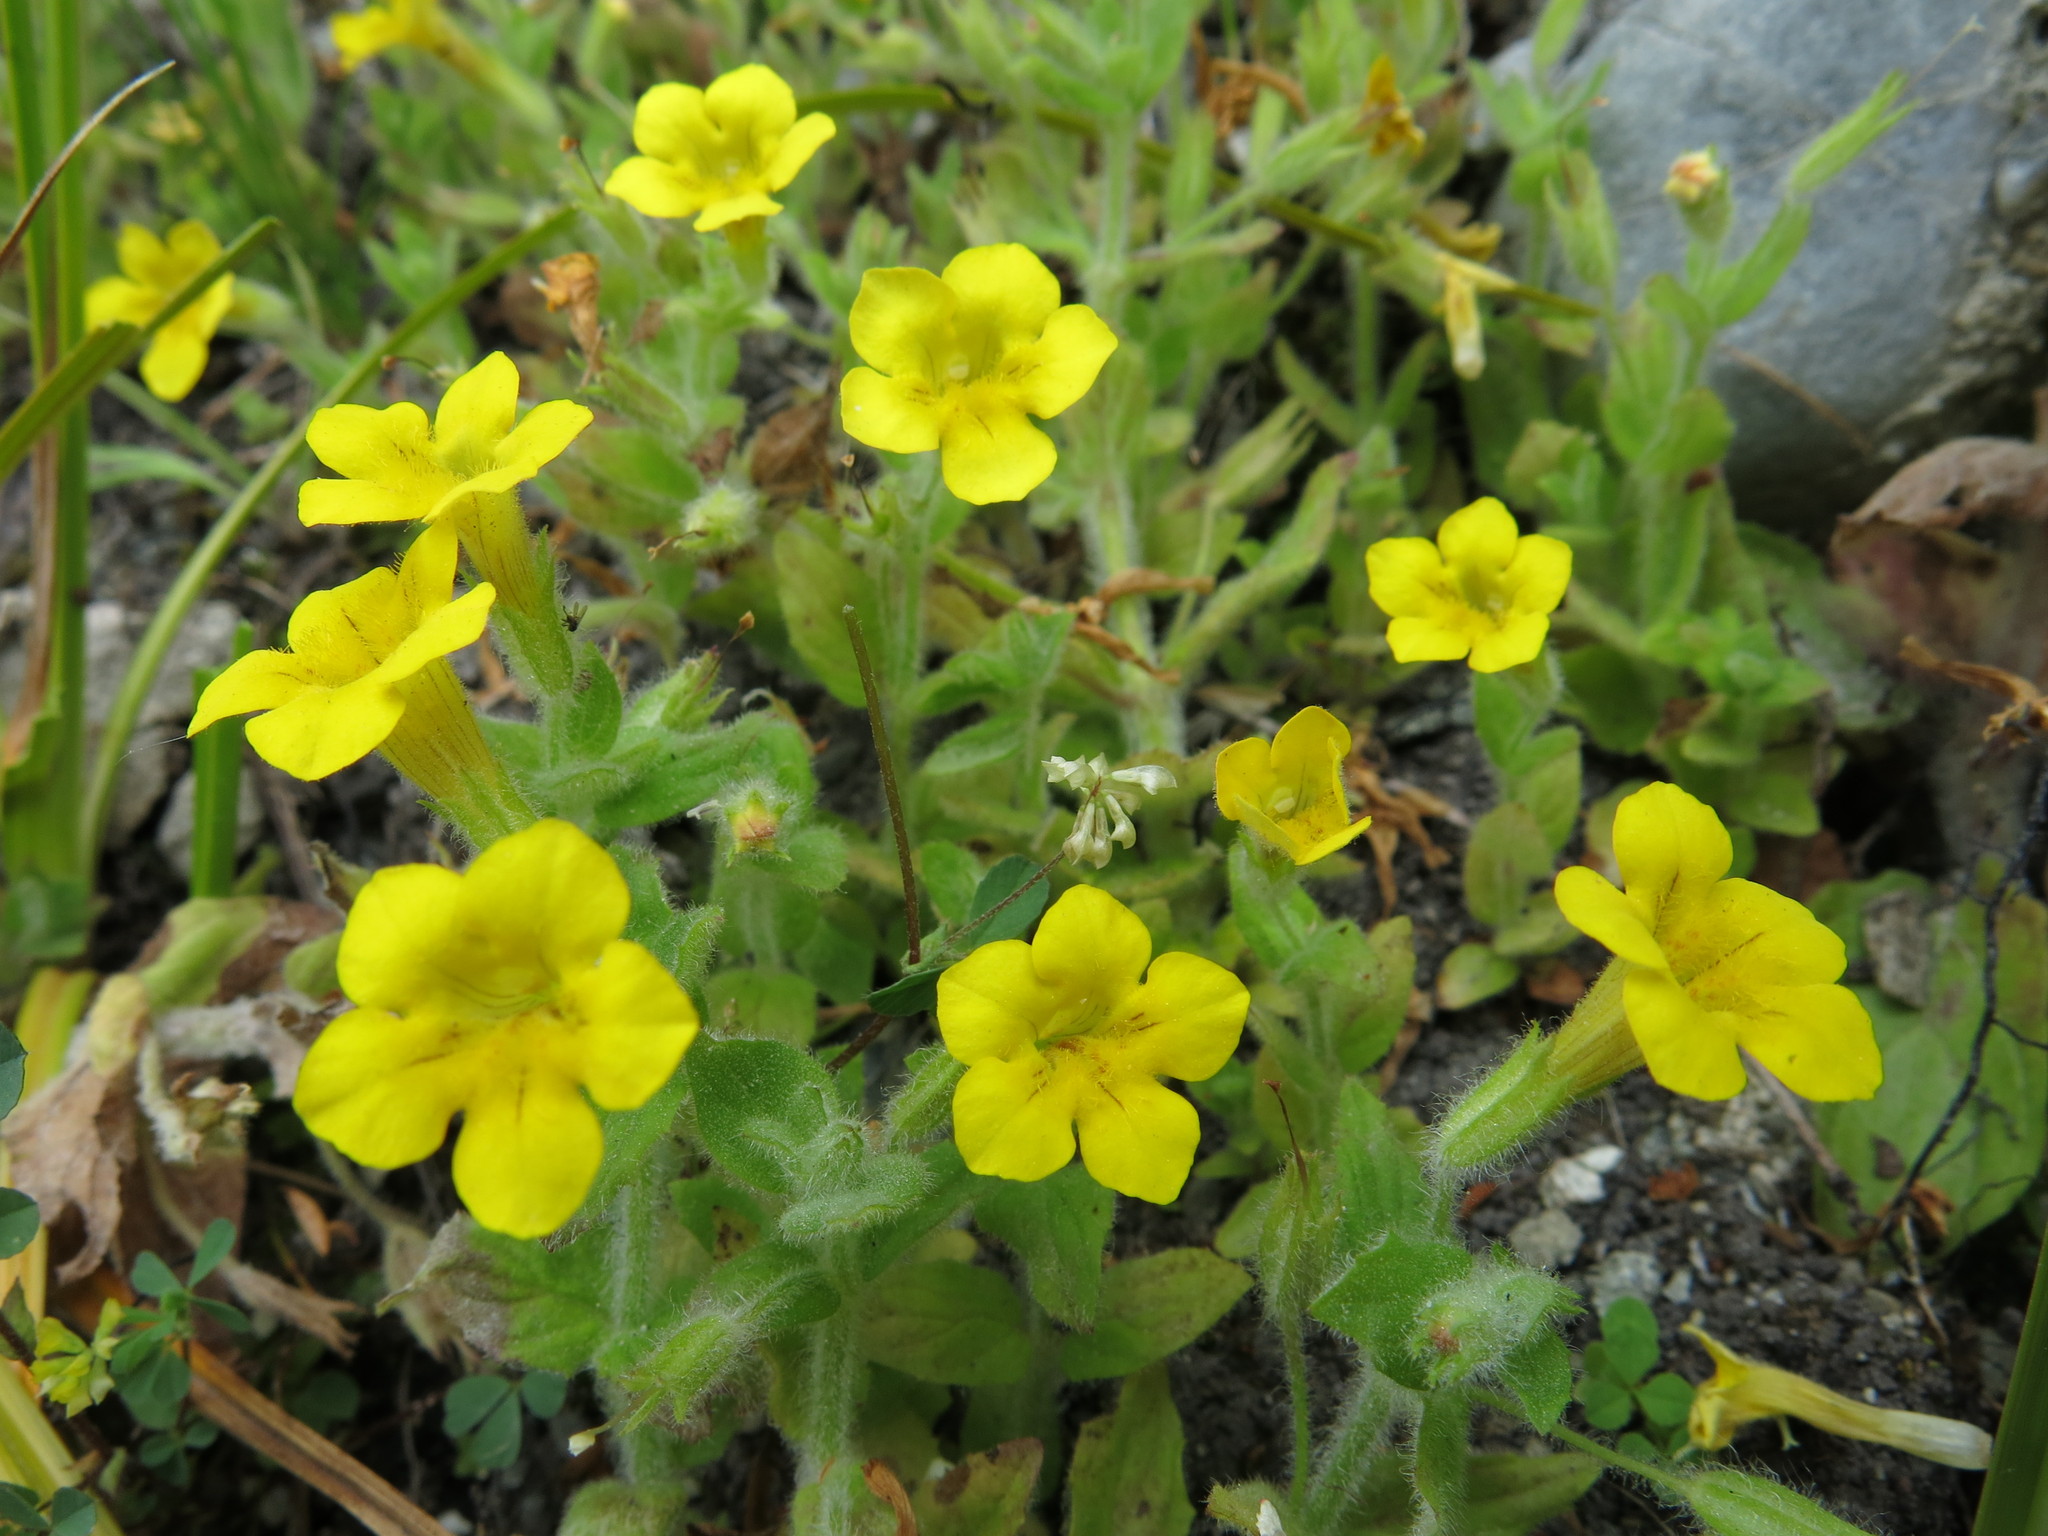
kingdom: Plantae
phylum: Tracheophyta
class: Magnoliopsida
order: Lamiales
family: Phrymaceae
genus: Erythranthe
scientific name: Erythranthe moschata
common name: Muskflower
